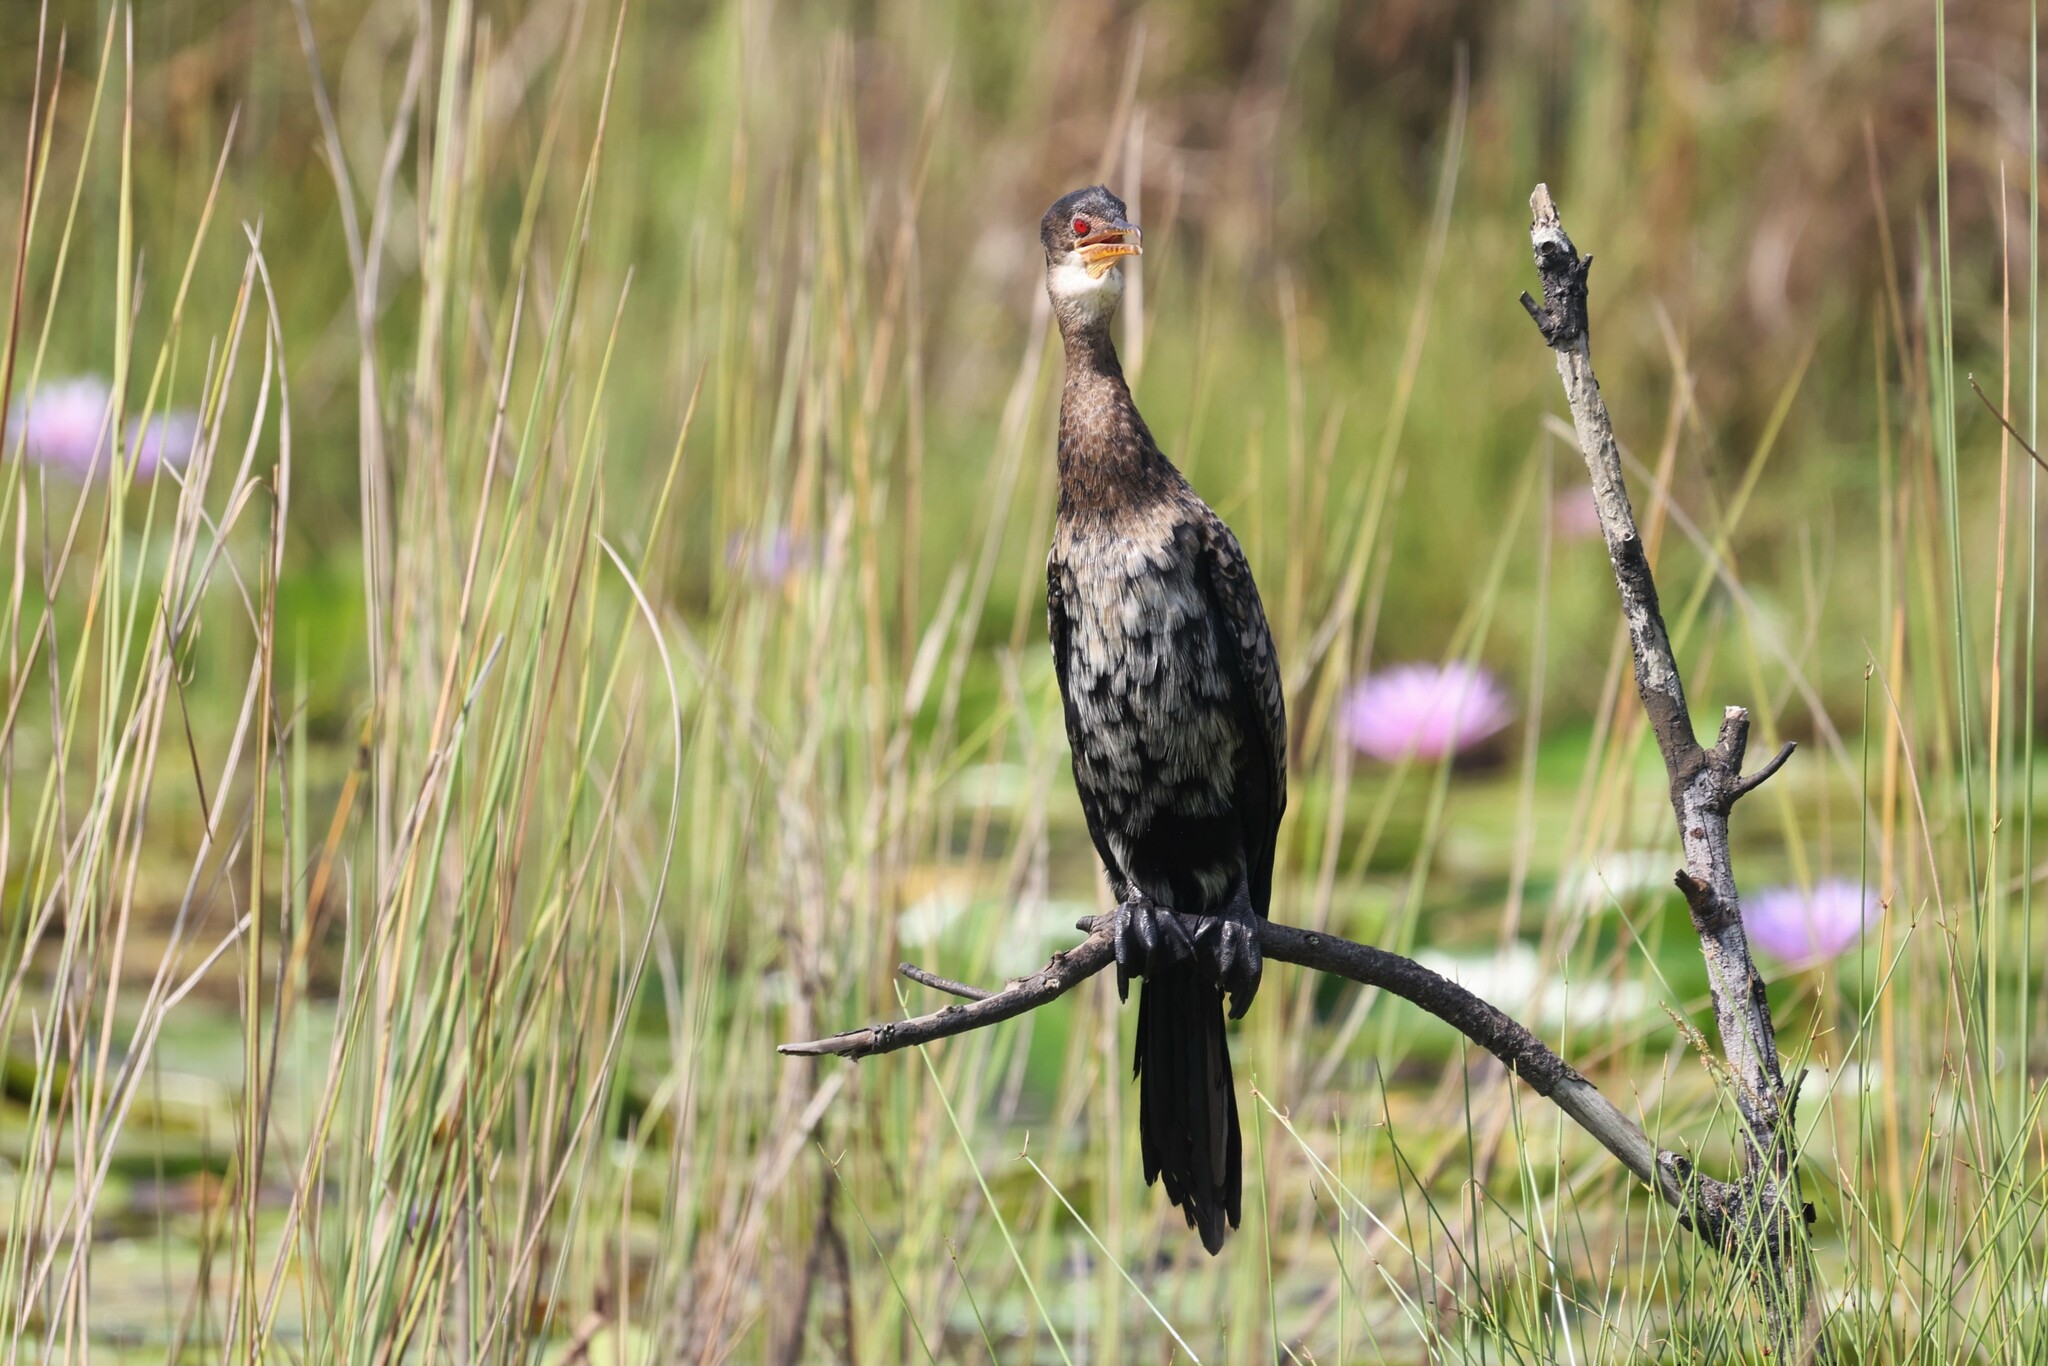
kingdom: Animalia
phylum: Chordata
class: Aves
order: Suliformes
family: Phalacrocoracidae
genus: Microcarbo
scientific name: Microcarbo africanus
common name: Long-tailed cormorant
